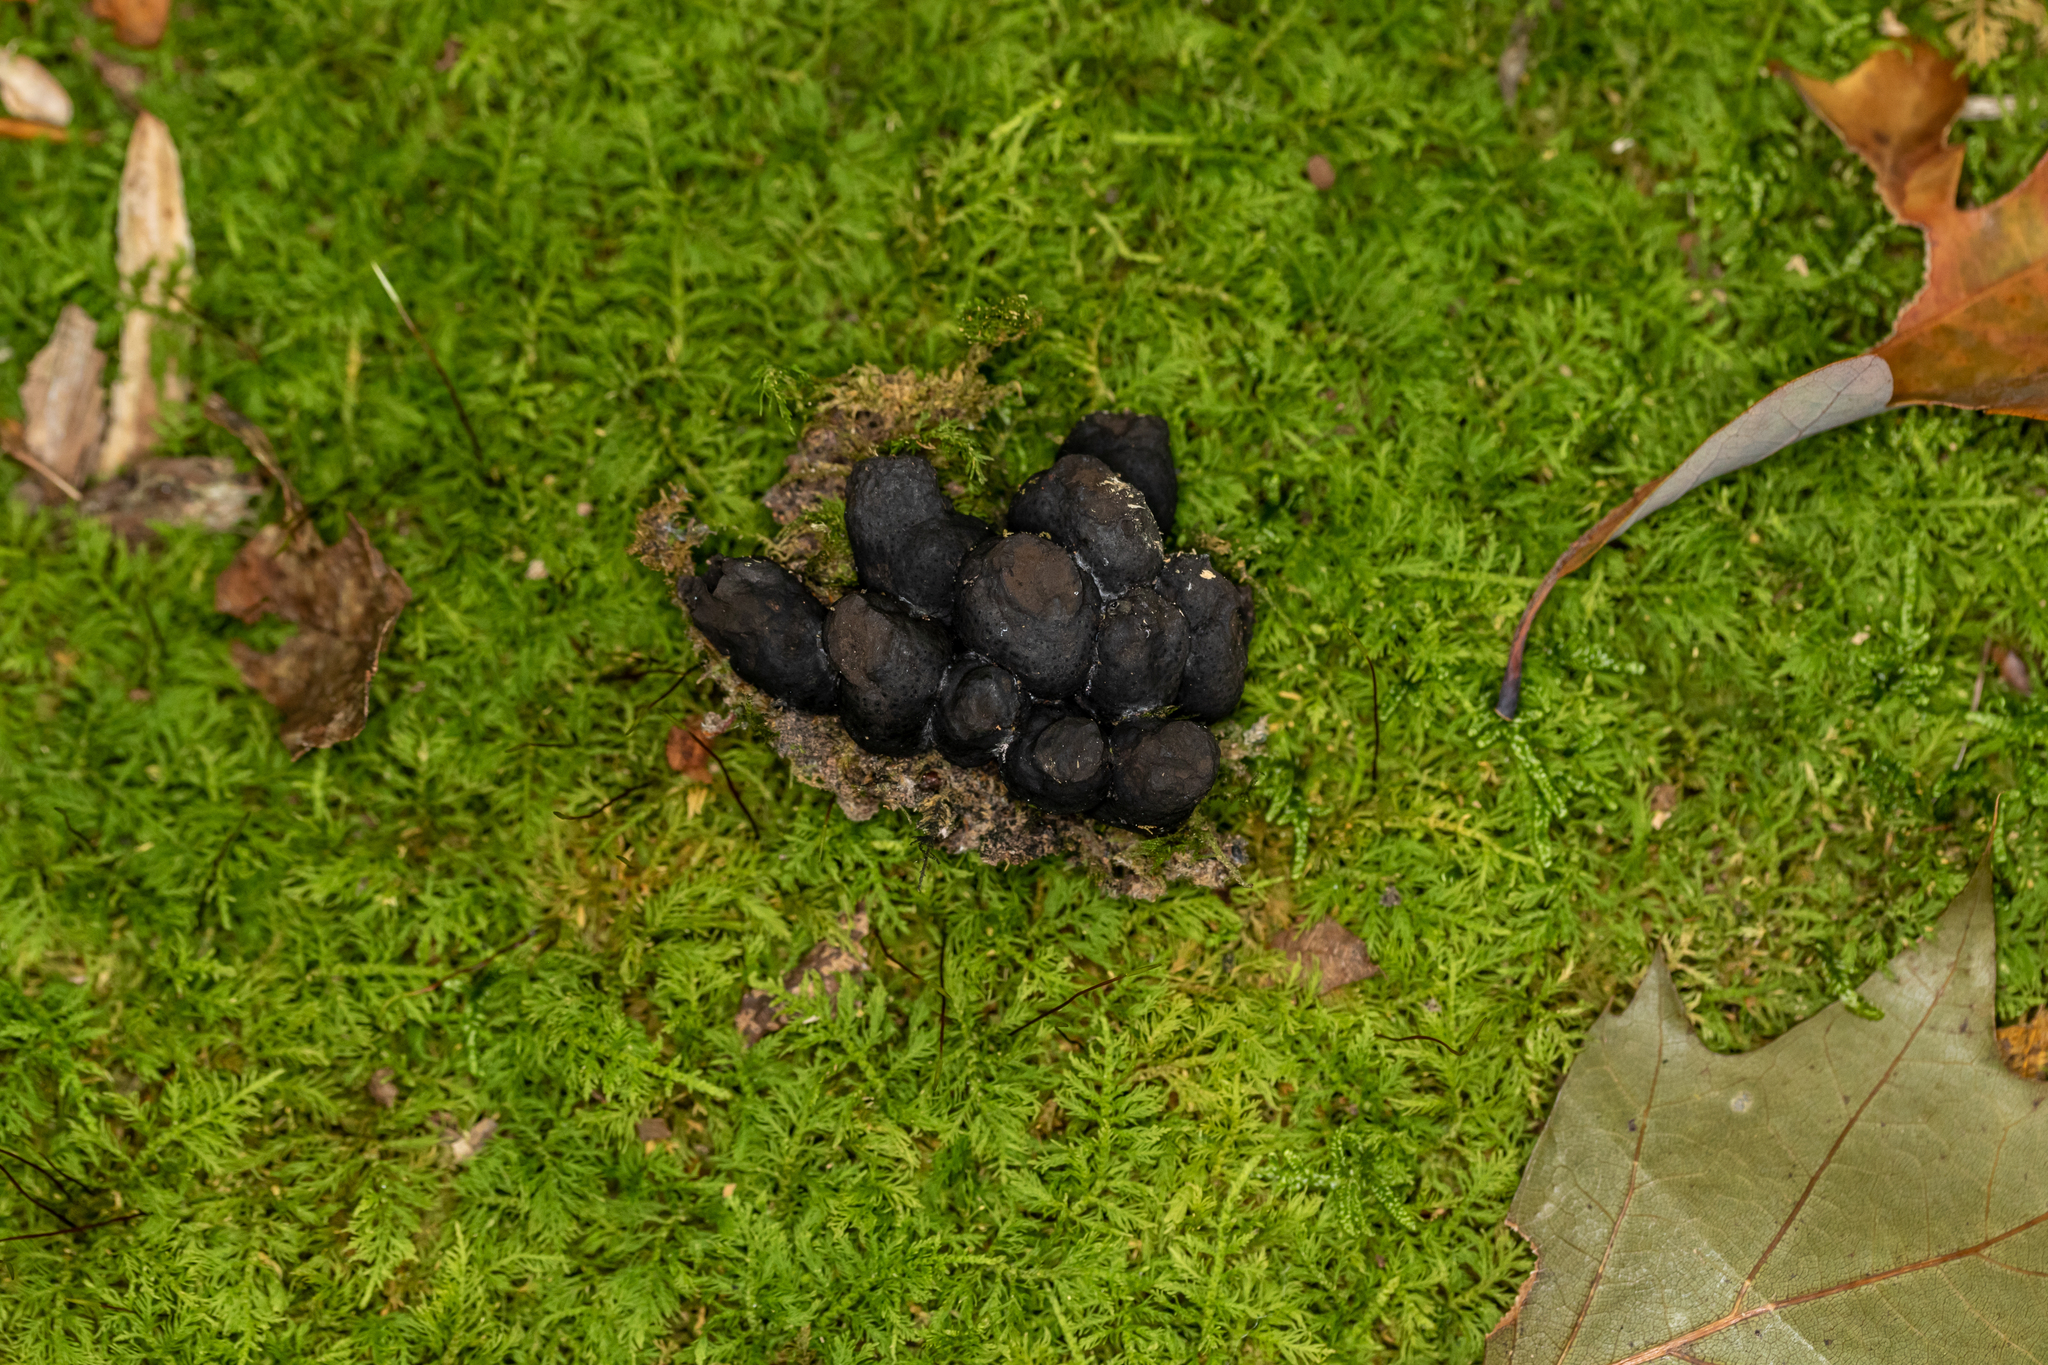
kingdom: Fungi
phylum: Ascomycota
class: Sordariomycetes
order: Xylariales
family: Xylariaceae
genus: Xylaria
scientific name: Xylaria polymorpha
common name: Dead man's fingers
